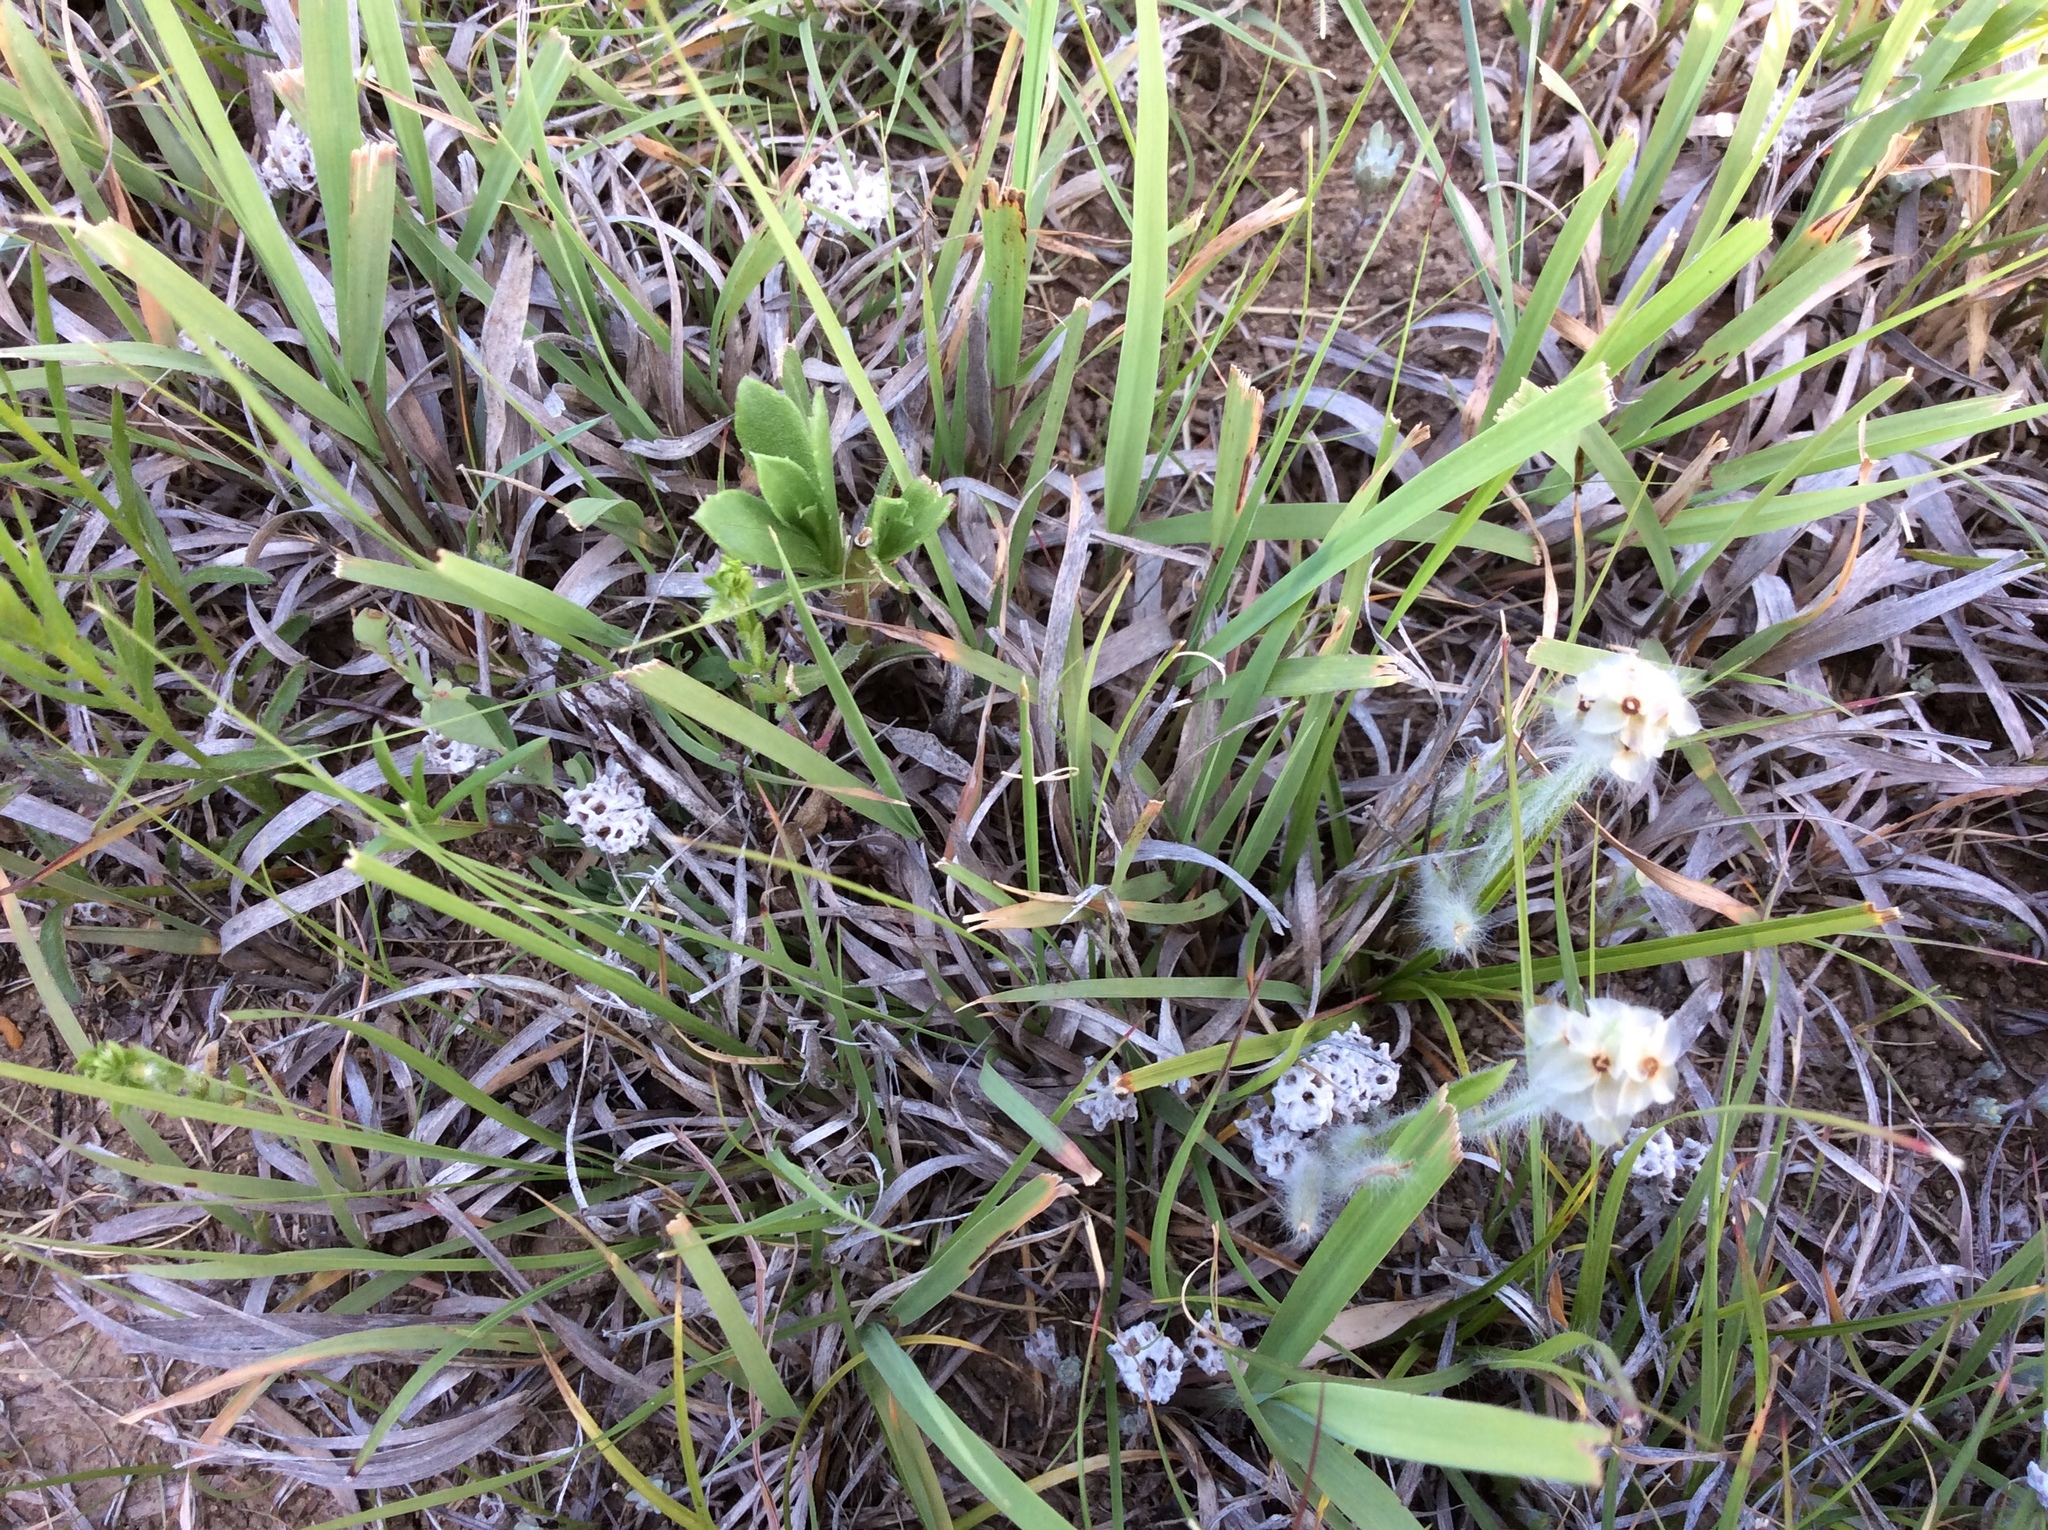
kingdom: Plantae
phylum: Tracheophyta
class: Magnoliopsida
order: Lamiales
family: Plantaginaceae
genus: Plantago
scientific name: Plantago helleri
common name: Heller's plantain
